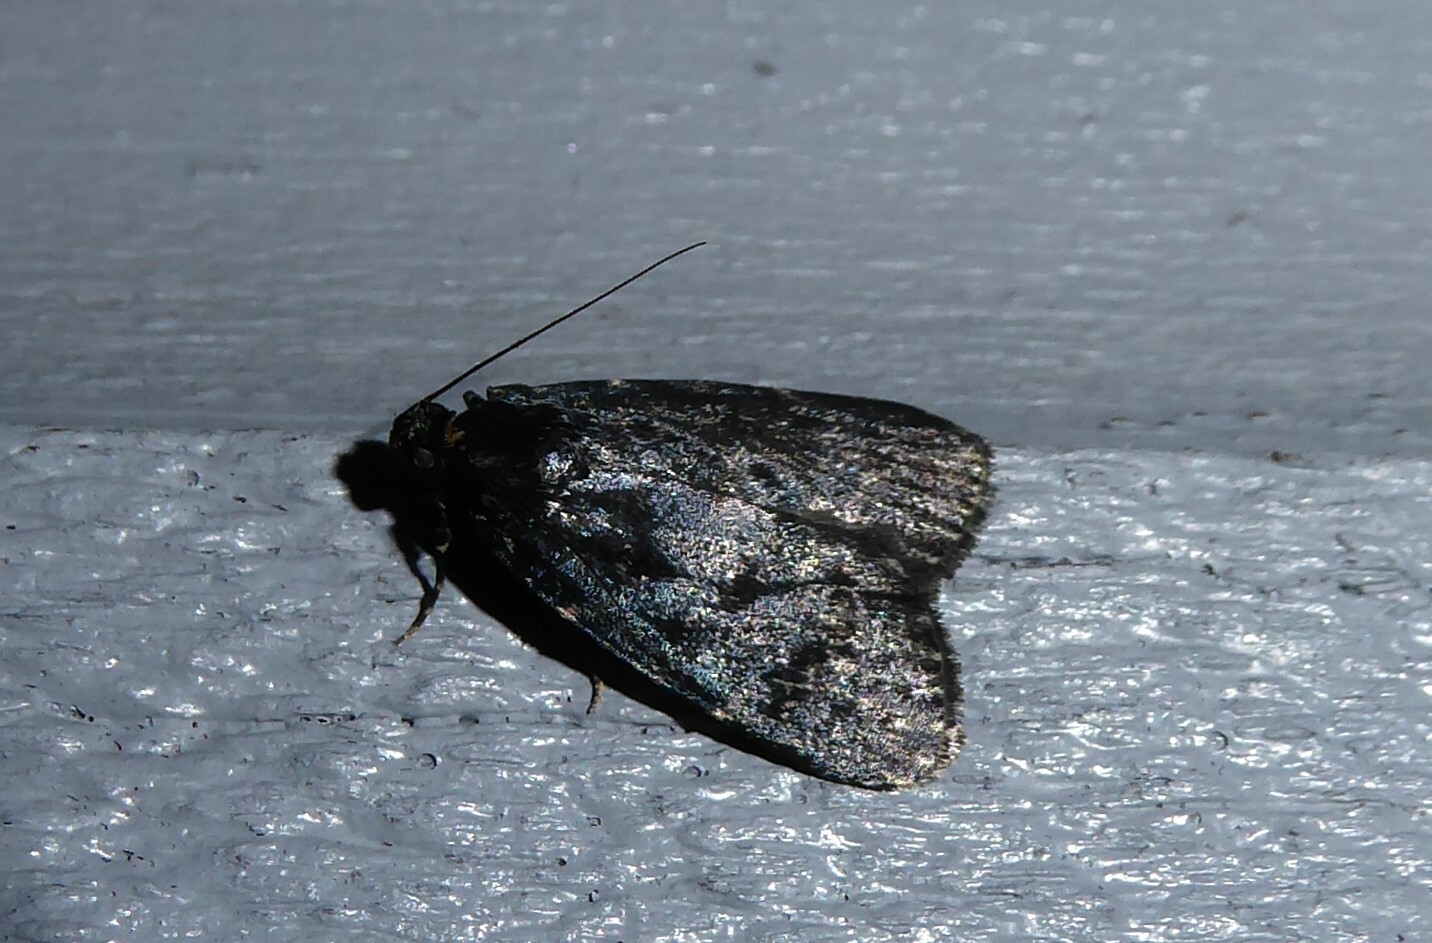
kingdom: Animalia
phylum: Arthropoda
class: Insecta
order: Lepidoptera
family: Pyralidae
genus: Stericta
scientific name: Stericta carbonalis
